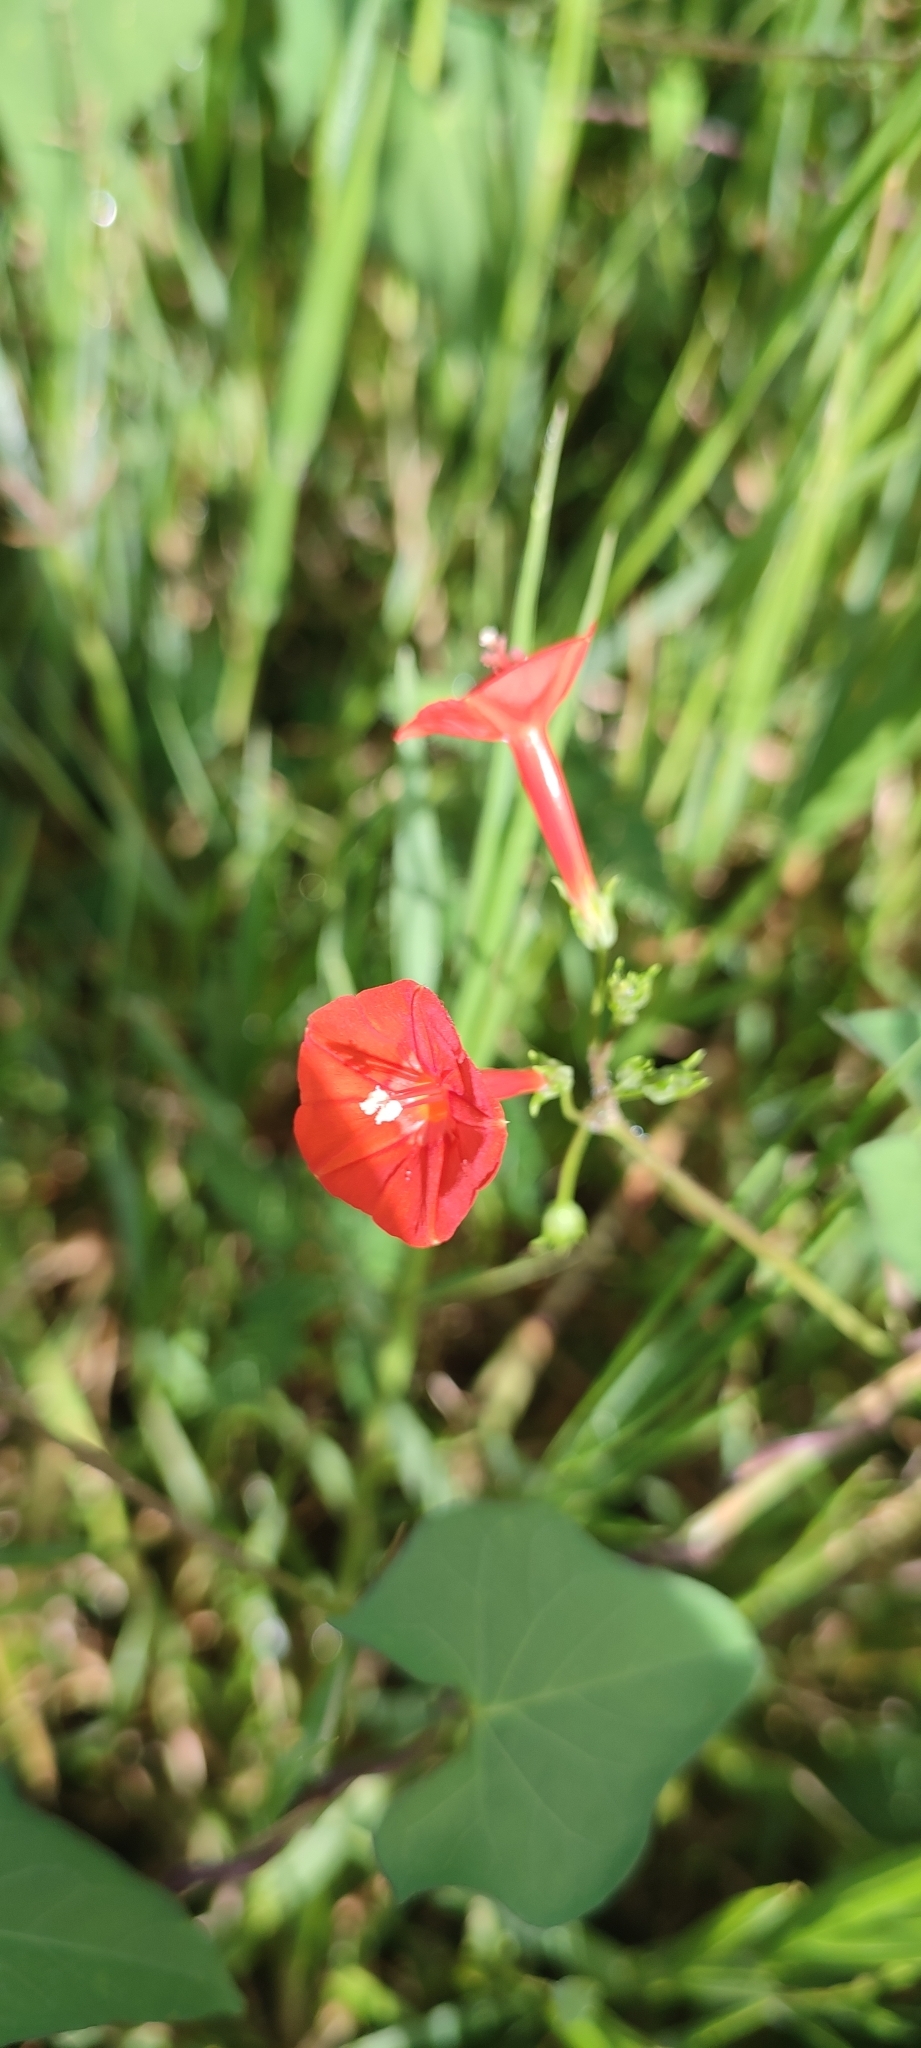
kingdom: Plantae
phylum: Tracheophyta
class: Magnoliopsida
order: Solanales
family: Convolvulaceae
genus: Ipomoea
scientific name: Ipomoea cholulensis
